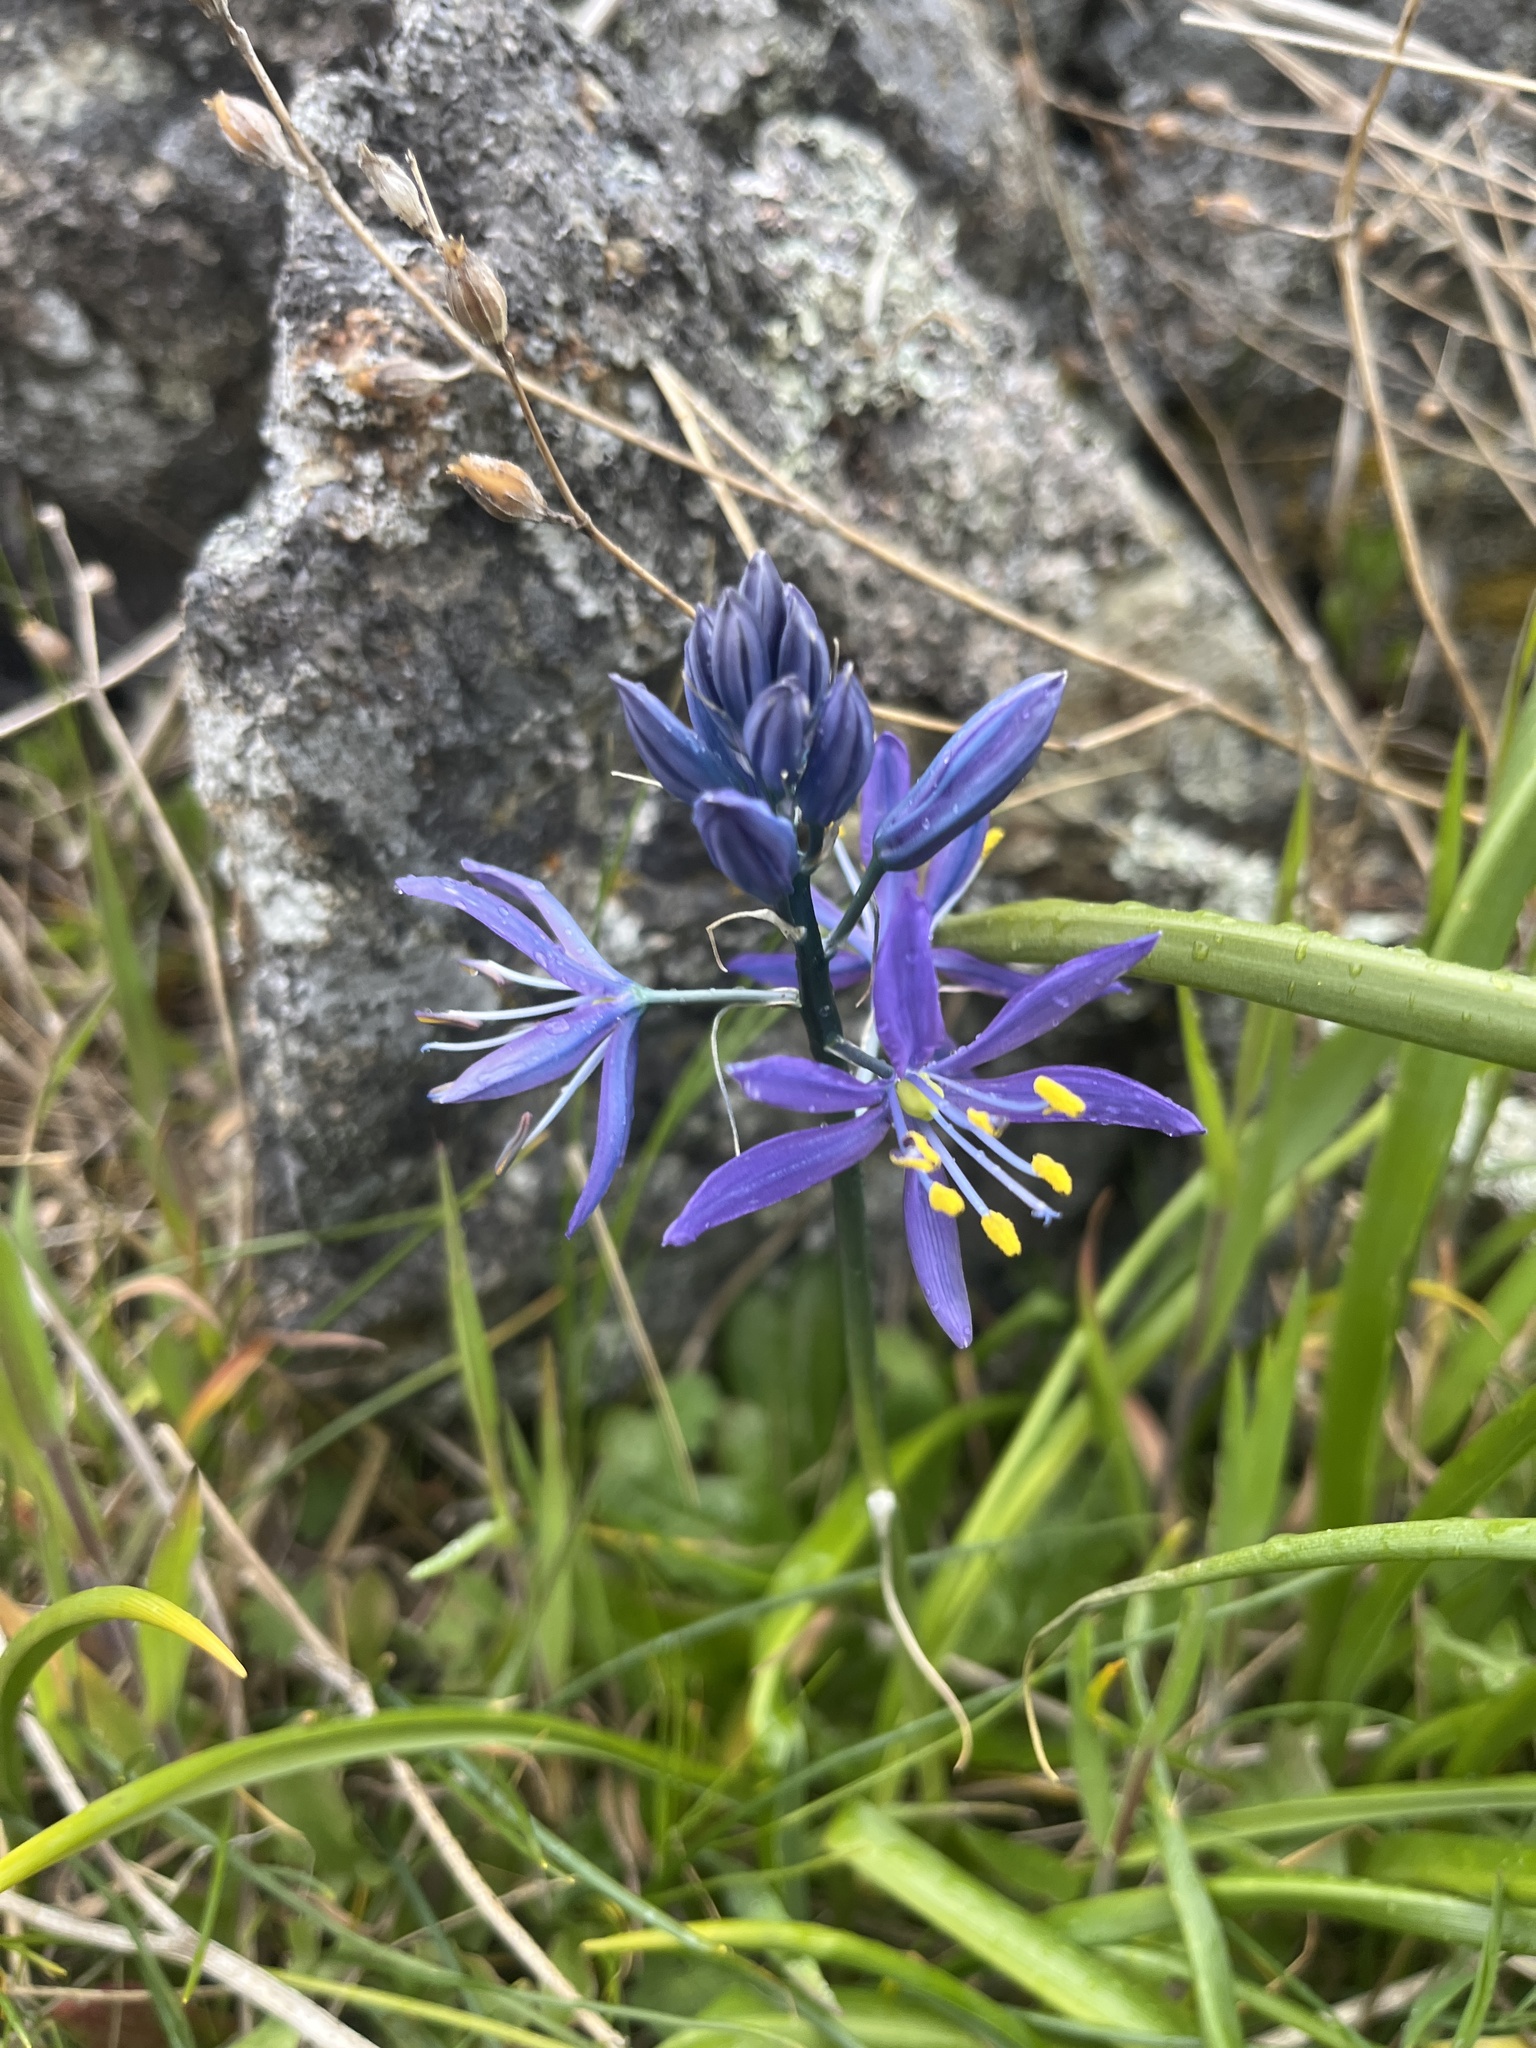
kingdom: Plantae
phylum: Tracheophyta
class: Liliopsida
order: Asparagales
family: Asparagaceae
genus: Camassia
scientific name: Camassia quamash
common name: Common camas
